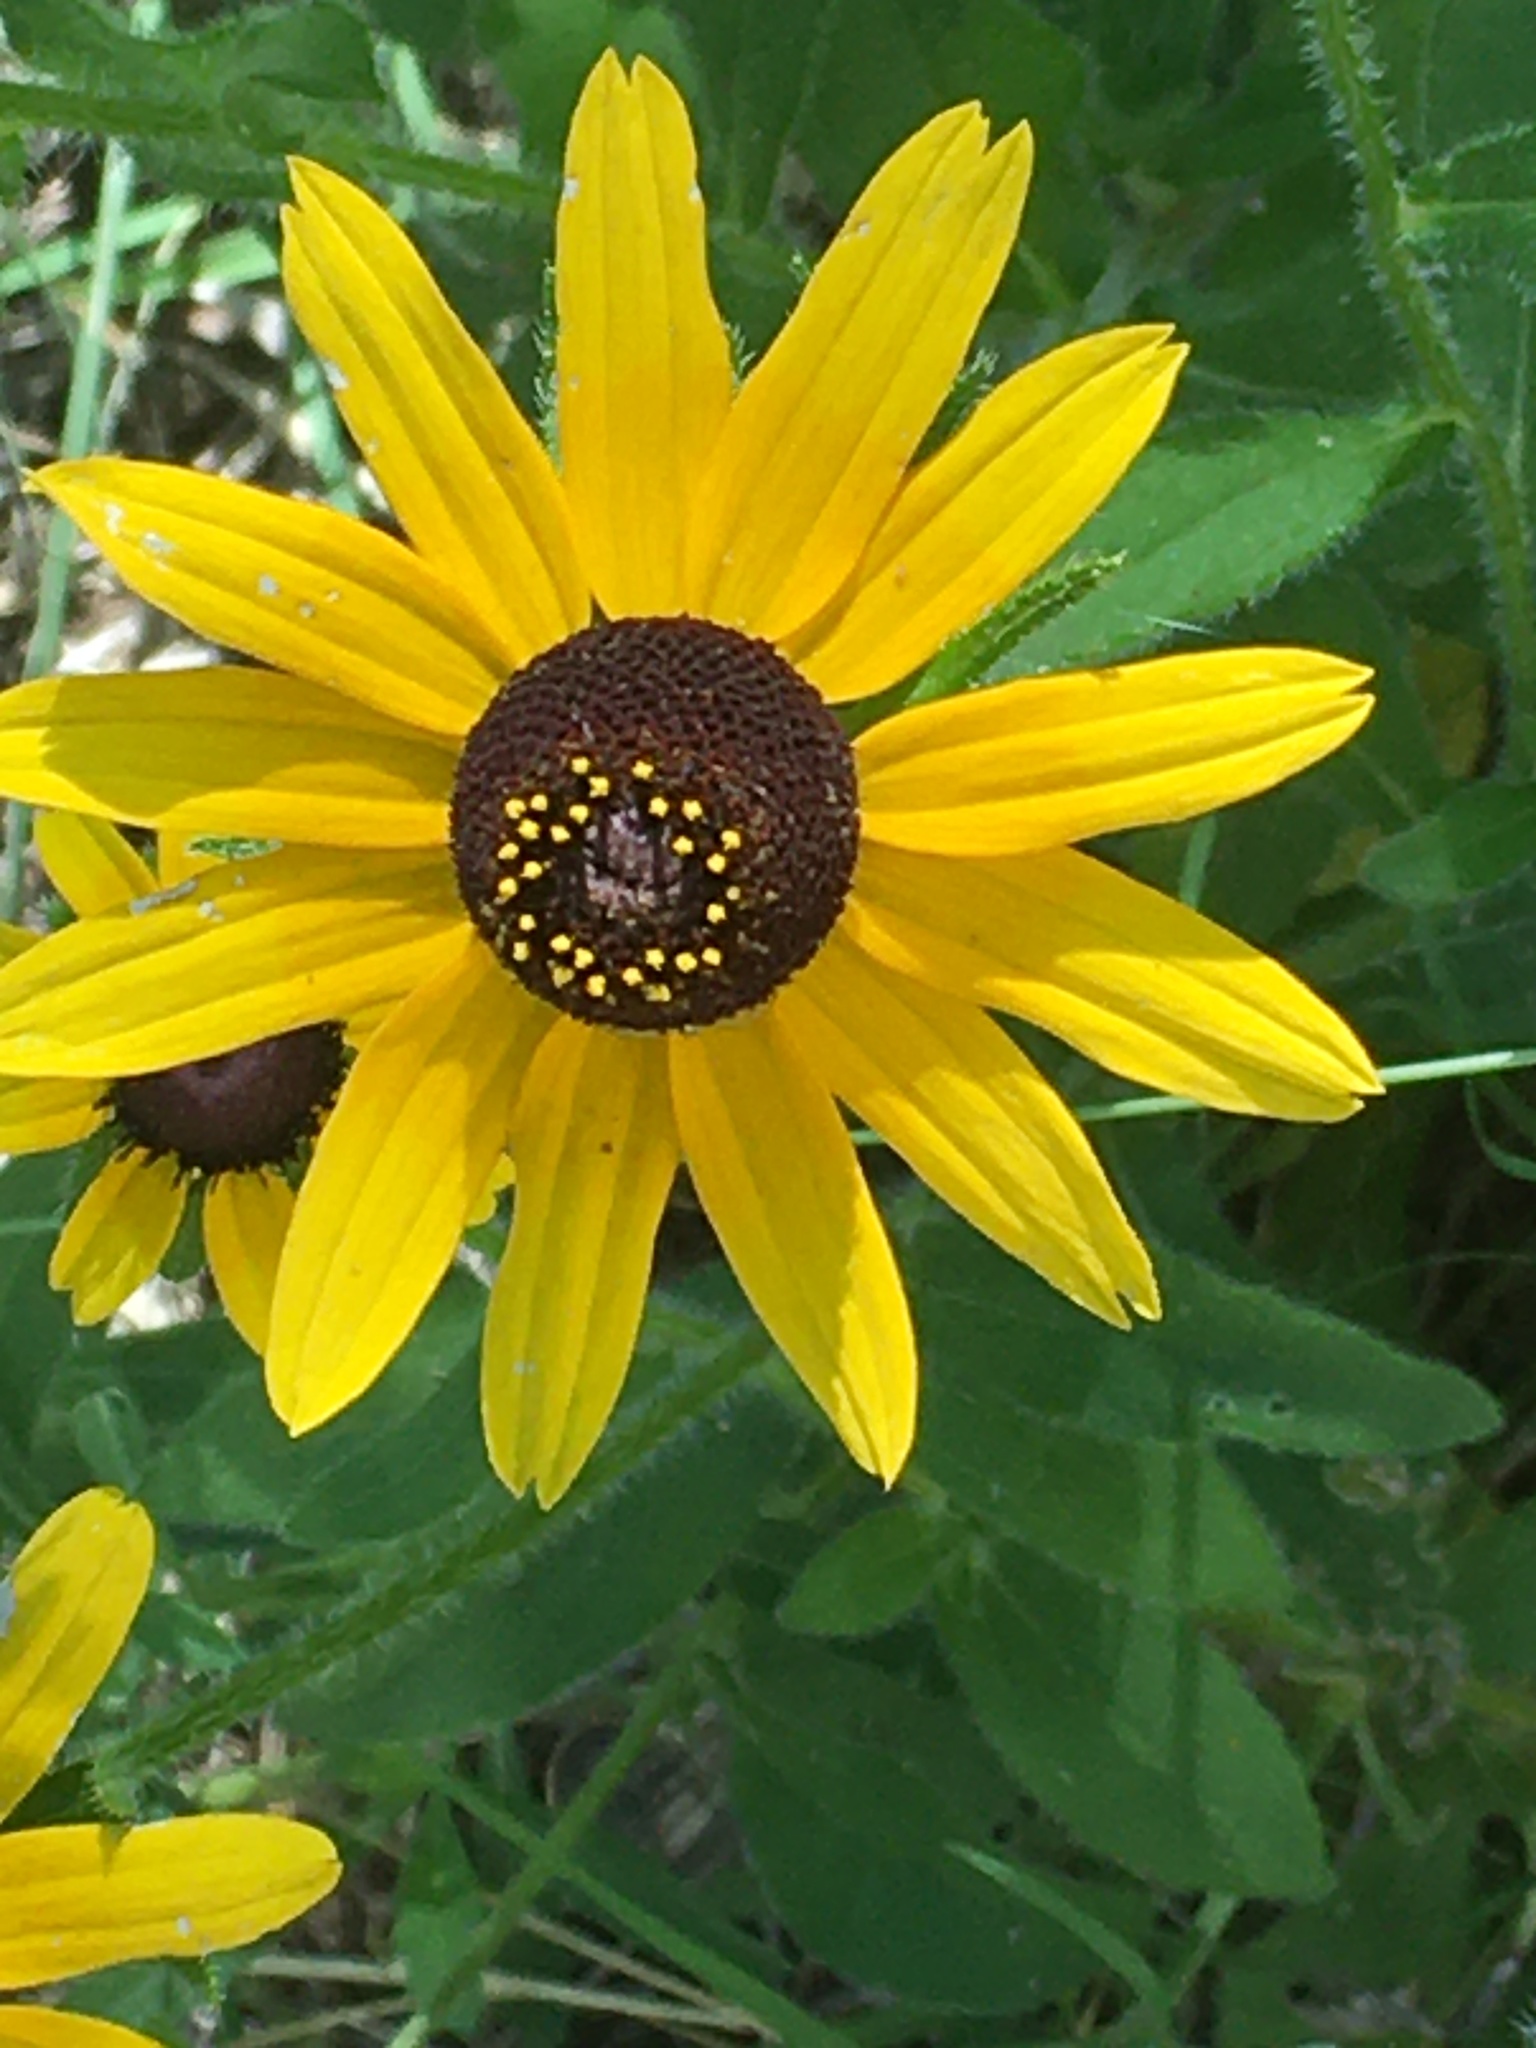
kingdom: Plantae
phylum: Tracheophyta
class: Magnoliopsida
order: Asterales
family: Asteraceae
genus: Rudbeckia
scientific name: Rudbeckia hirta
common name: Black-eyed-susan
